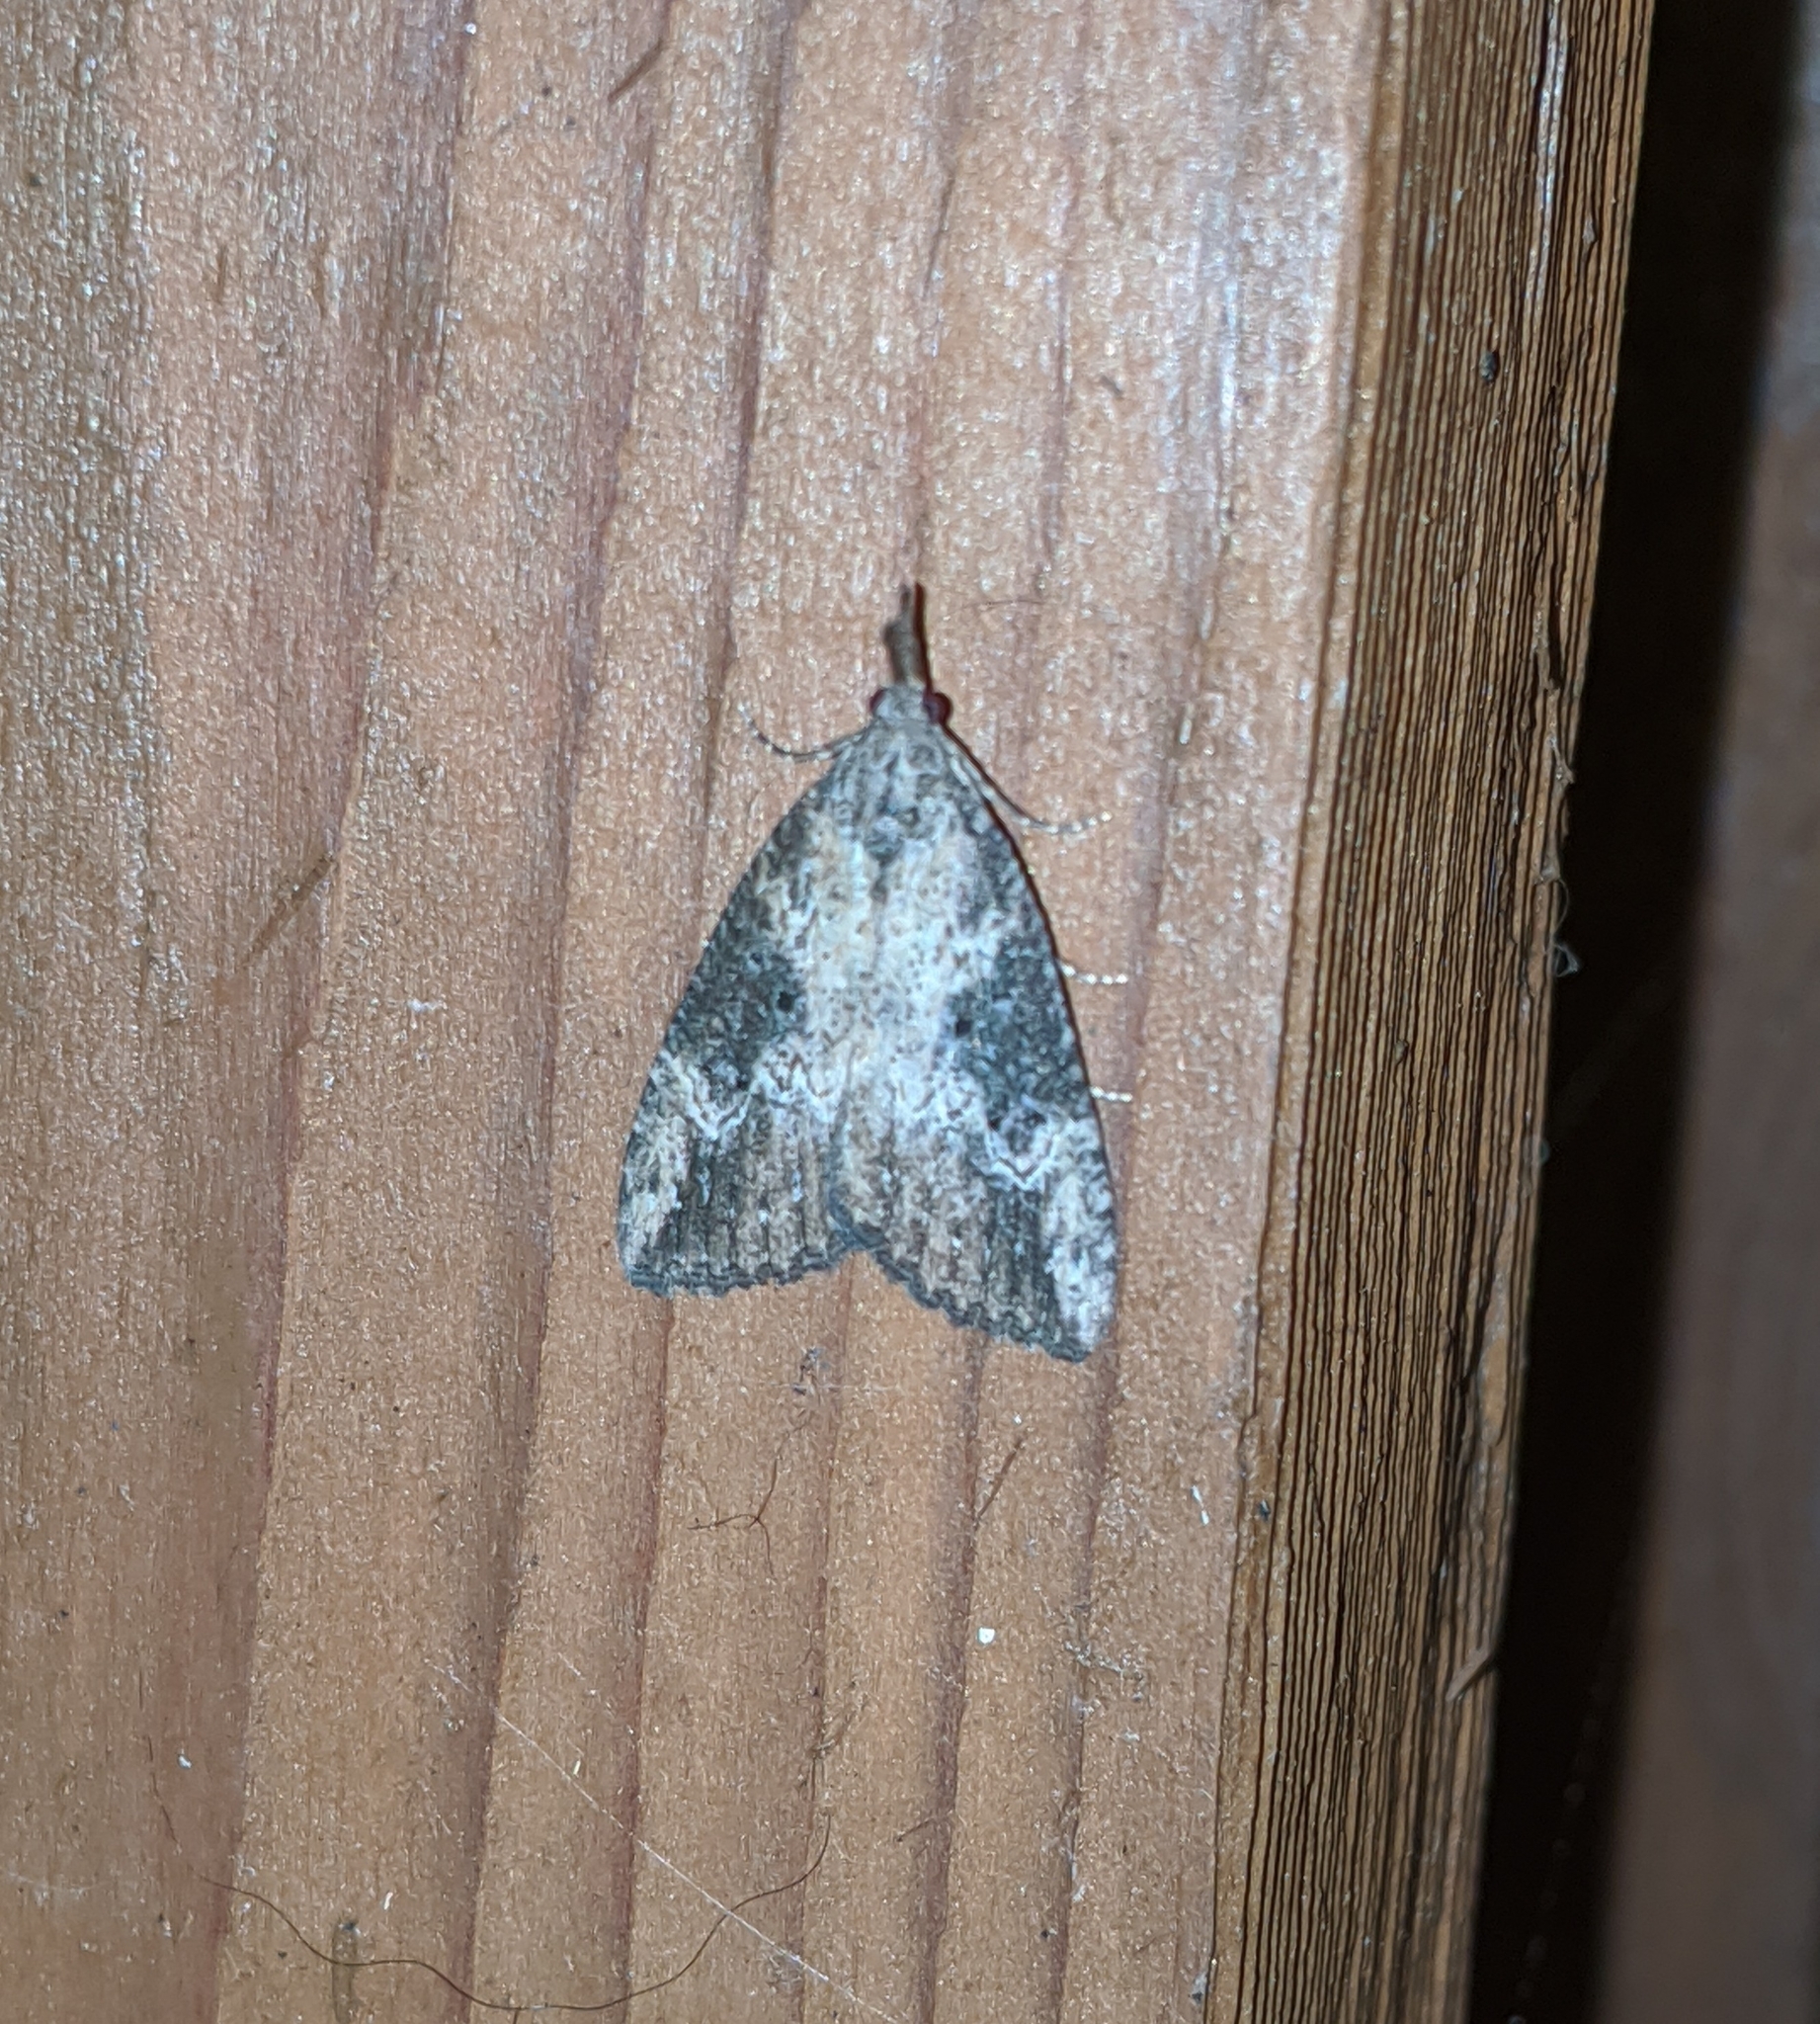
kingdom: Animalia
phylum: Arthropoda
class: Insecta
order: Lepidoptera
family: Erebidae
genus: Hypena
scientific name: Hypena humuli
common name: Hop vine snout
